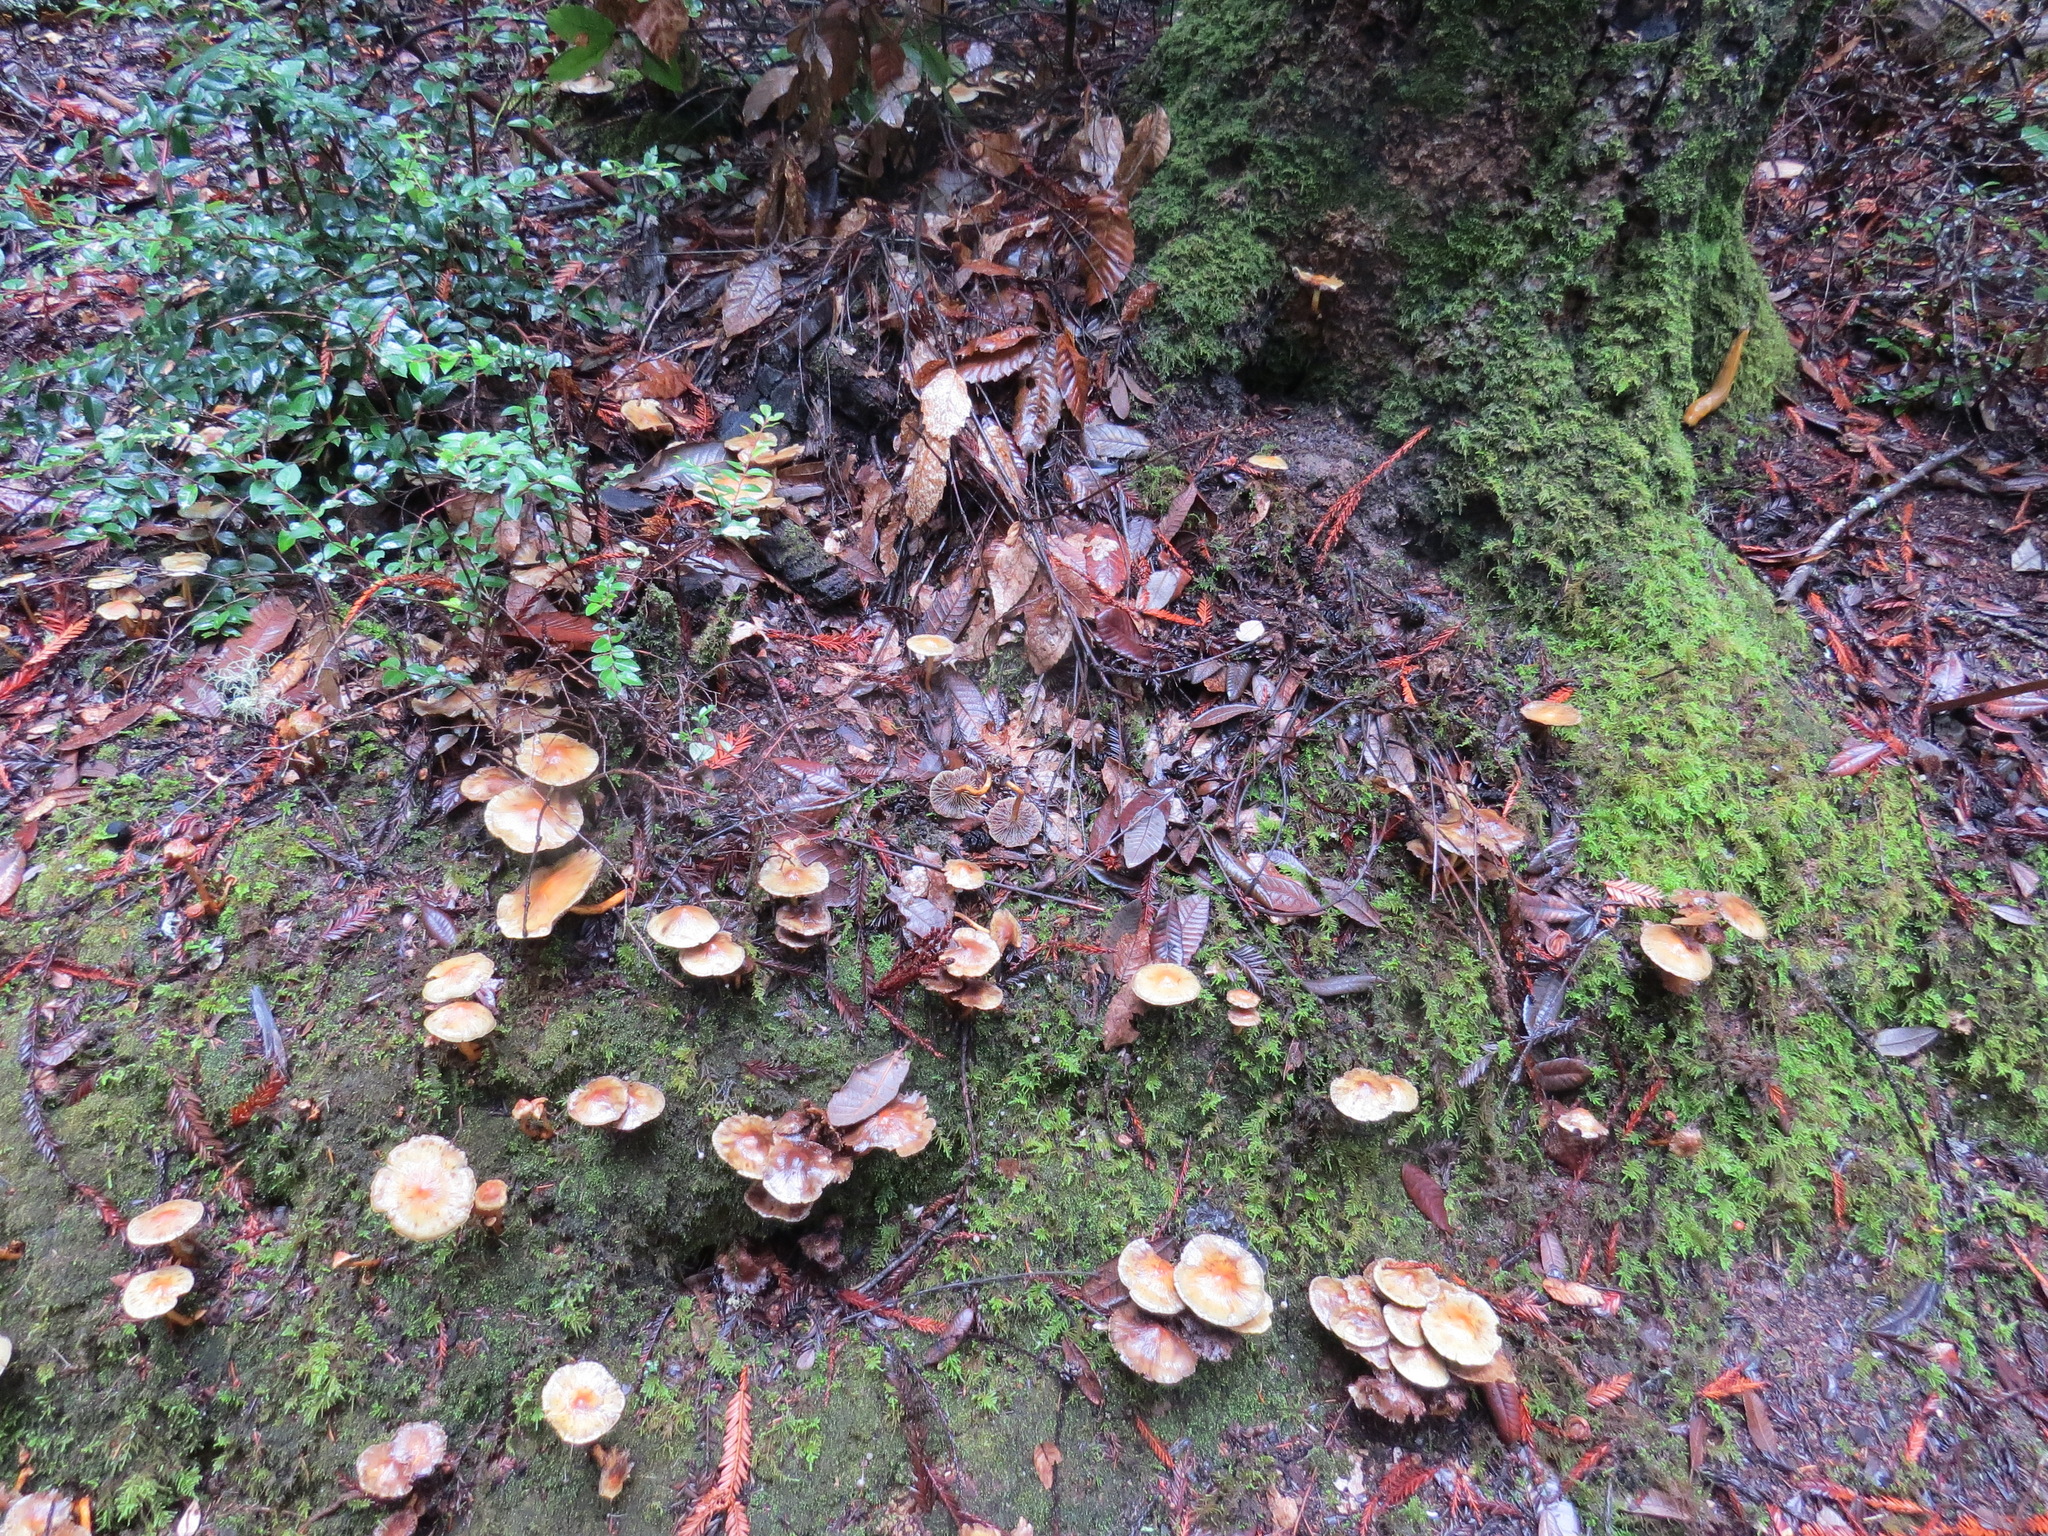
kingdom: Fungi
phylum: Basidiomycota
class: Agaricomycetes
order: Agaricales
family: Strophariaceae
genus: Hypholoma
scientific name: Hypholoma capnoides
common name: Conifer tuft
